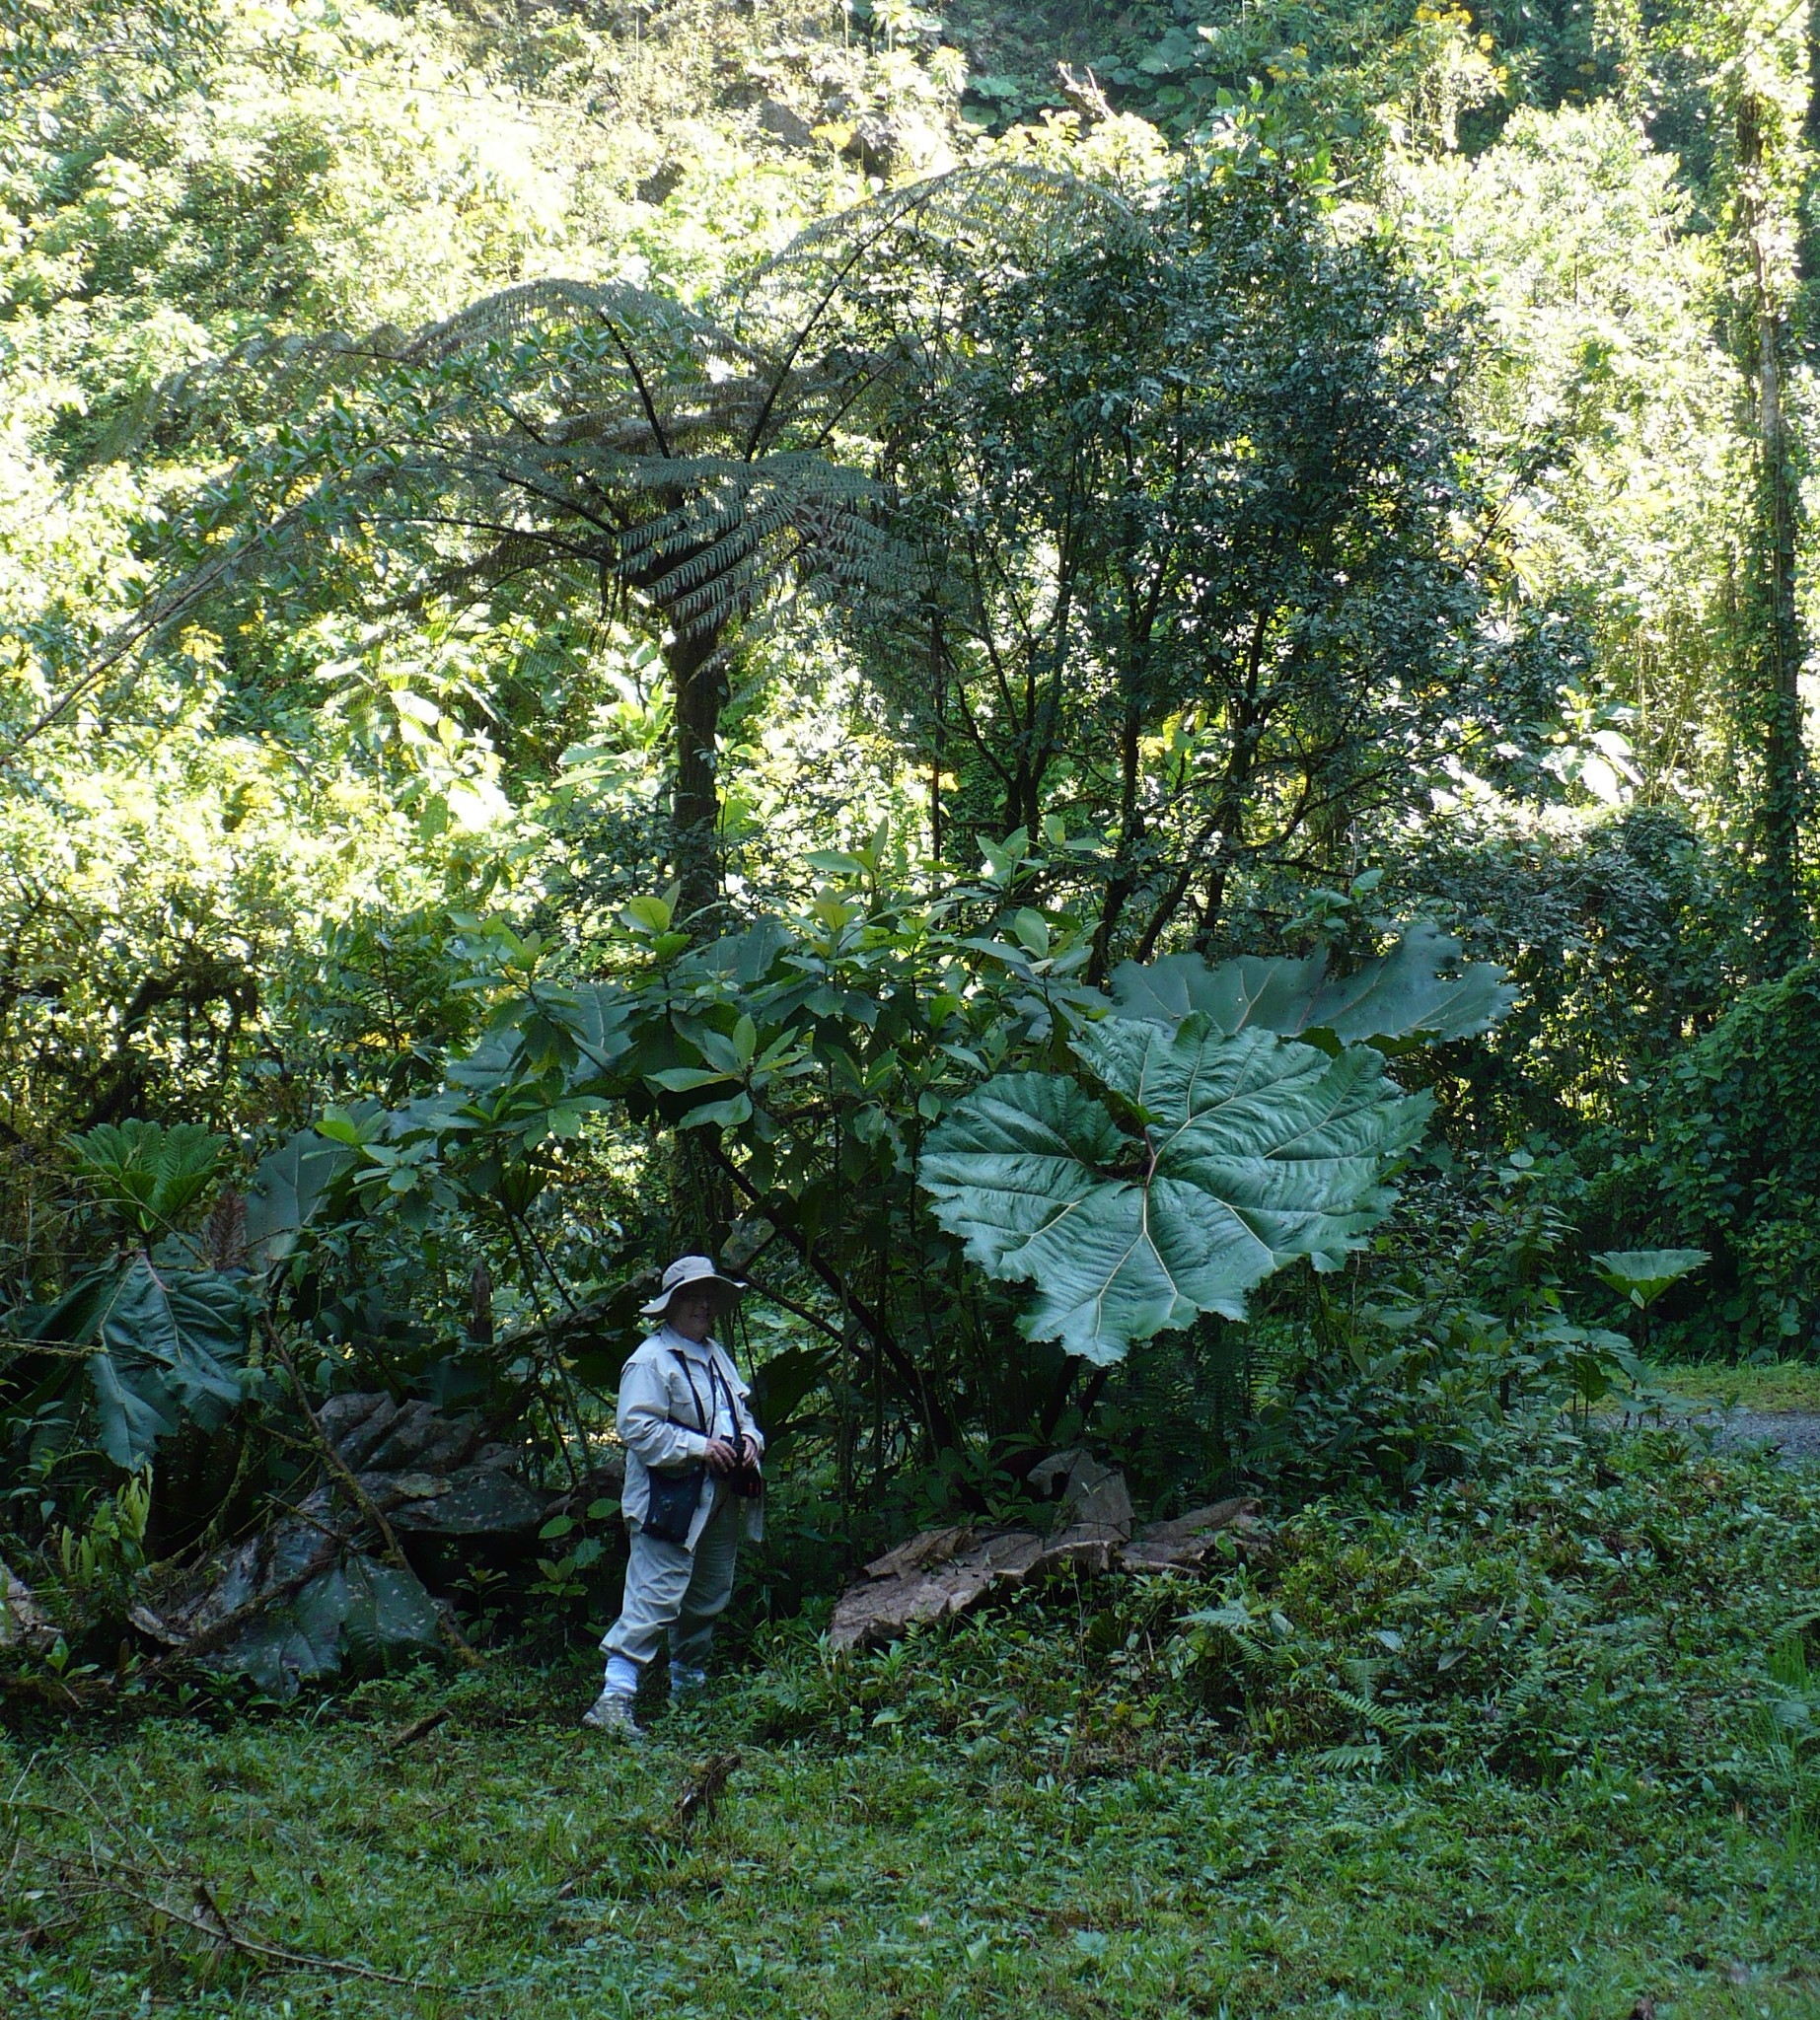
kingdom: Plantae
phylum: Tracheophyta
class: Magnoliopsida
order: Gunnerales
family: Gunneraceae
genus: Gunnera
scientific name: Gunnera insignis
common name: Poorman's umbrella
